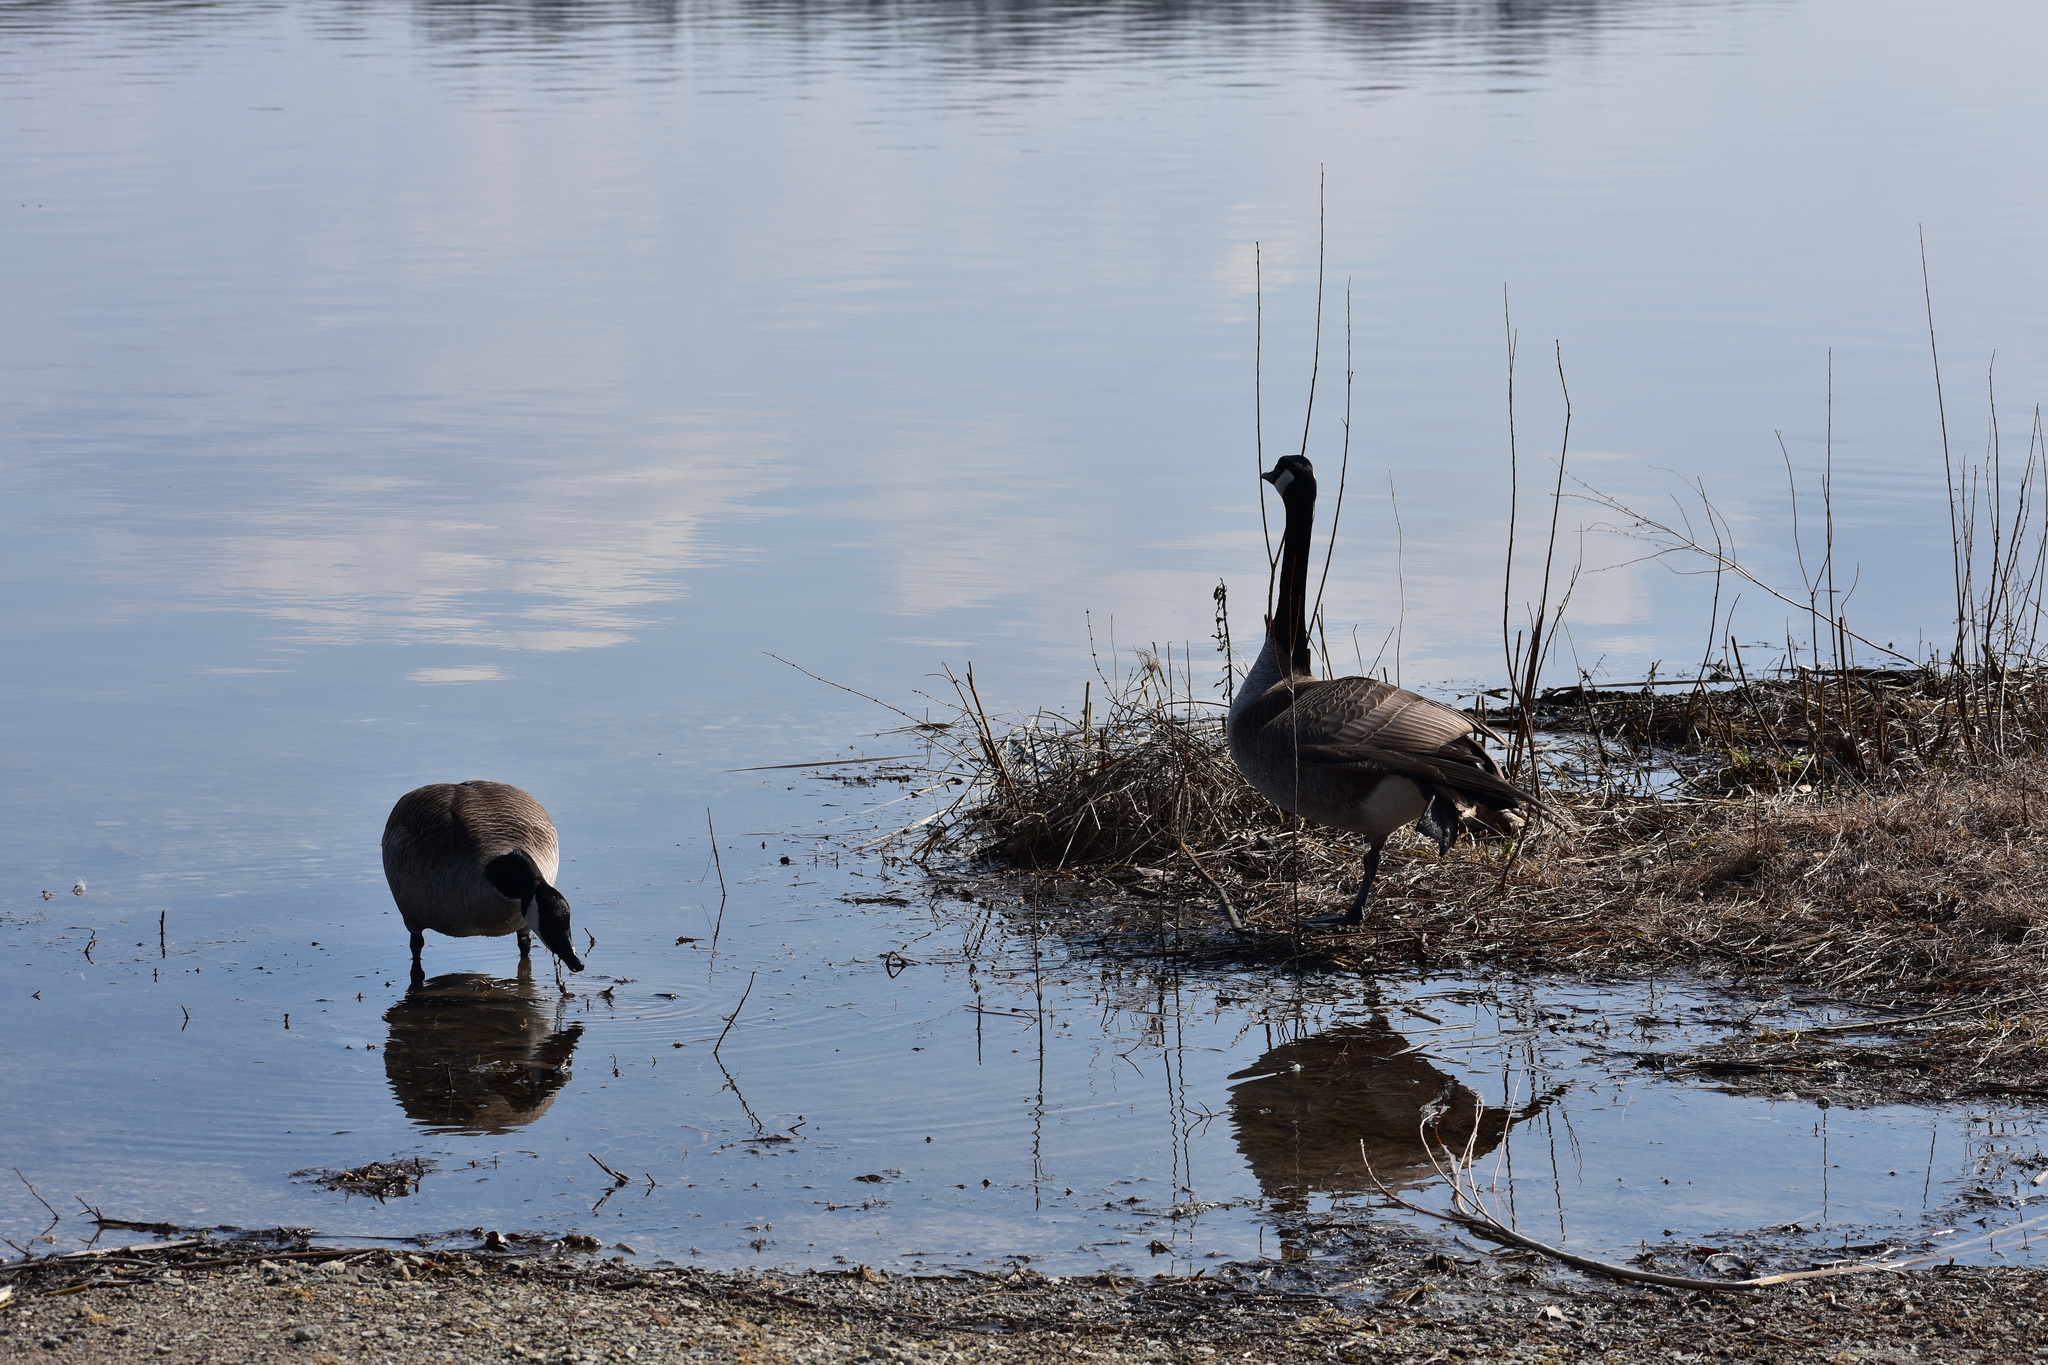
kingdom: Animalia
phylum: Chordata
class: Aves
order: Anseriformes
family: Anatidae
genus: Branta
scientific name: Branta canadensis
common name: Canada goose
